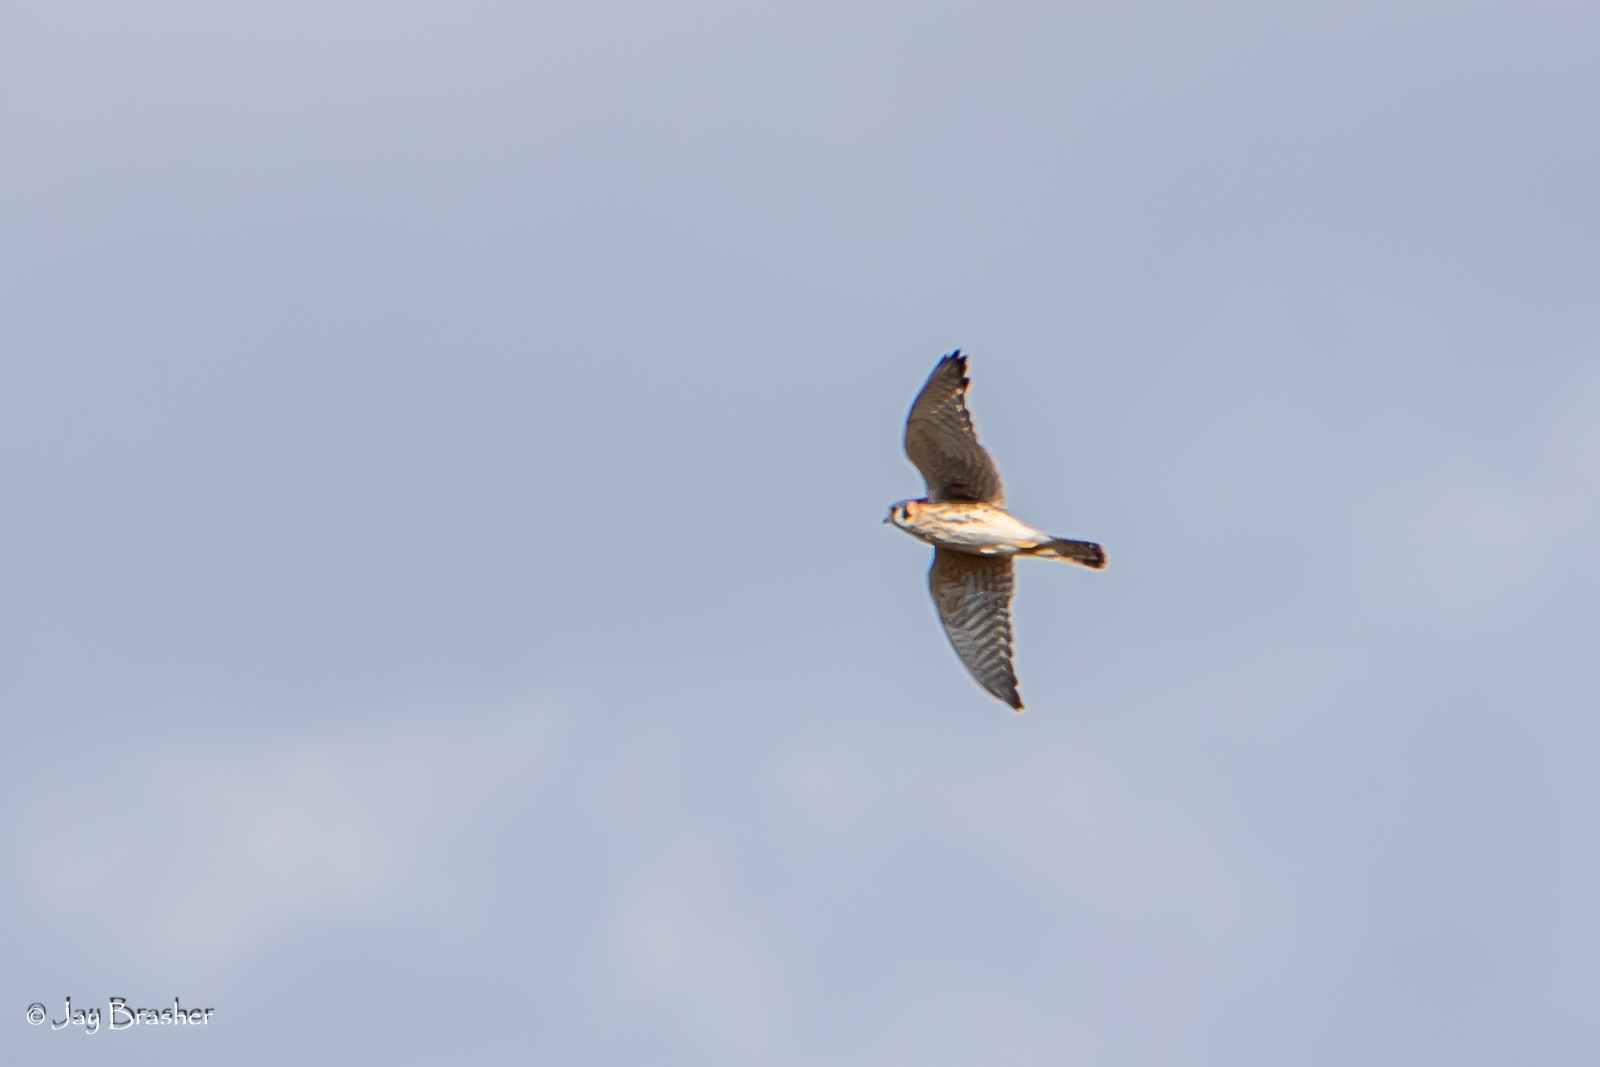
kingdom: Animalia
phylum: Chordata
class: Aves
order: Falconiformes
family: Falconidae
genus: Falco
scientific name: Falco sparverius
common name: American kestrel
